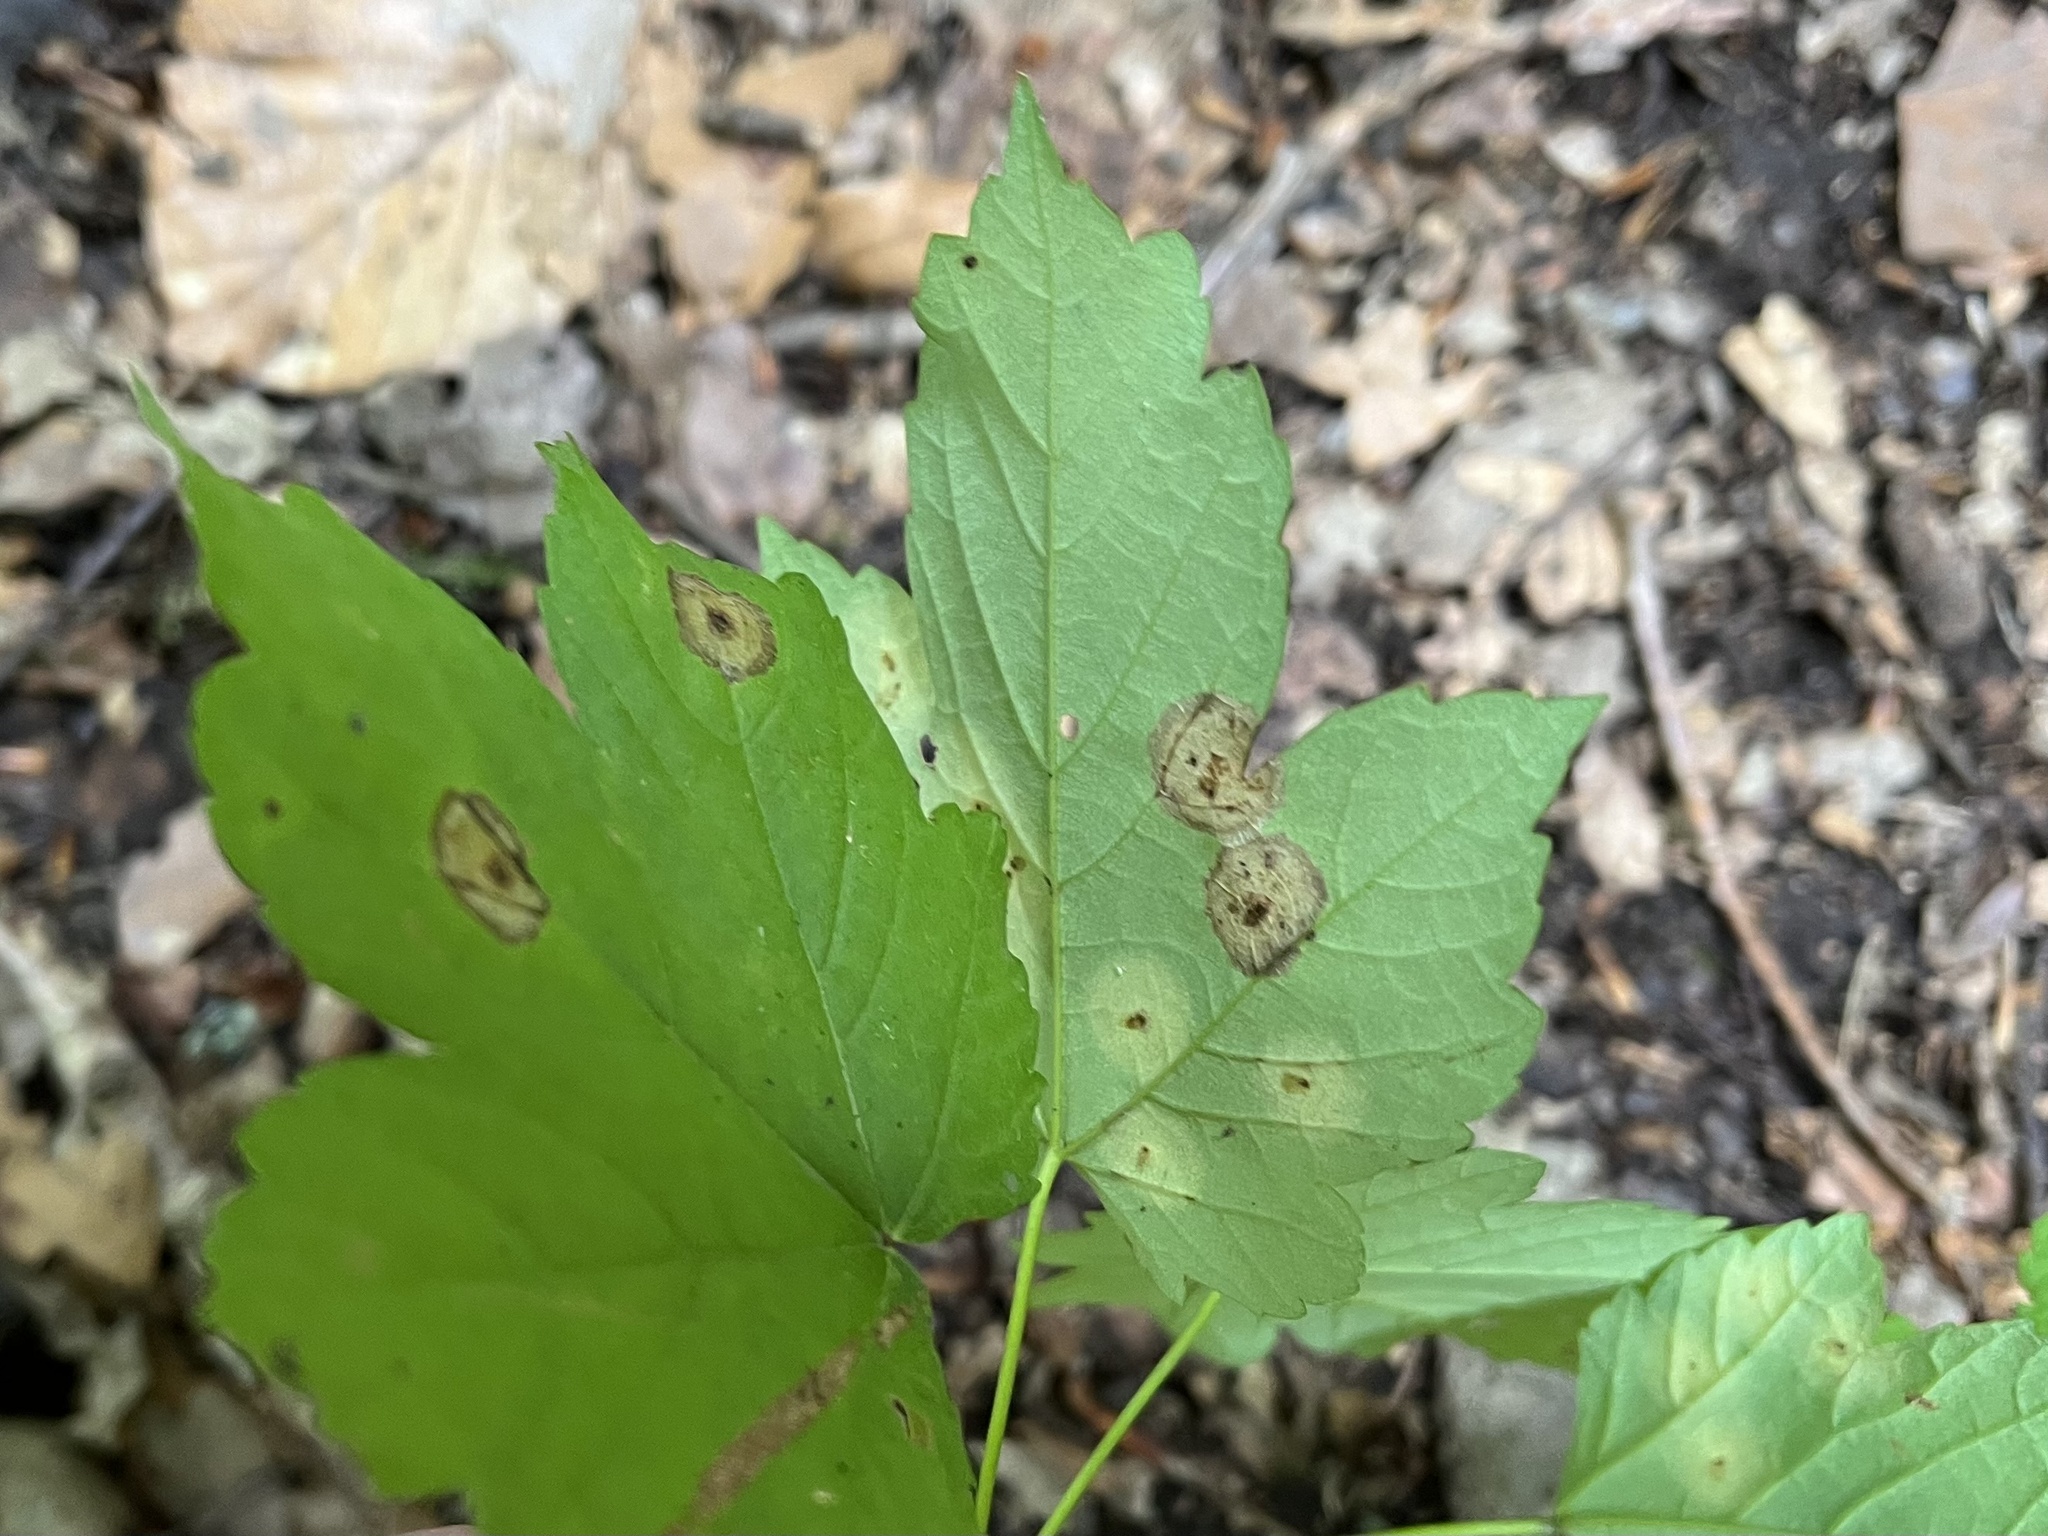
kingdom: Fungi
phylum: Ascomycota
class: Leotiomycetes
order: Rhytismatales
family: Rhytismataceae
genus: Rhytisma
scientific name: Rhytisma acerinum
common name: European tar spot
